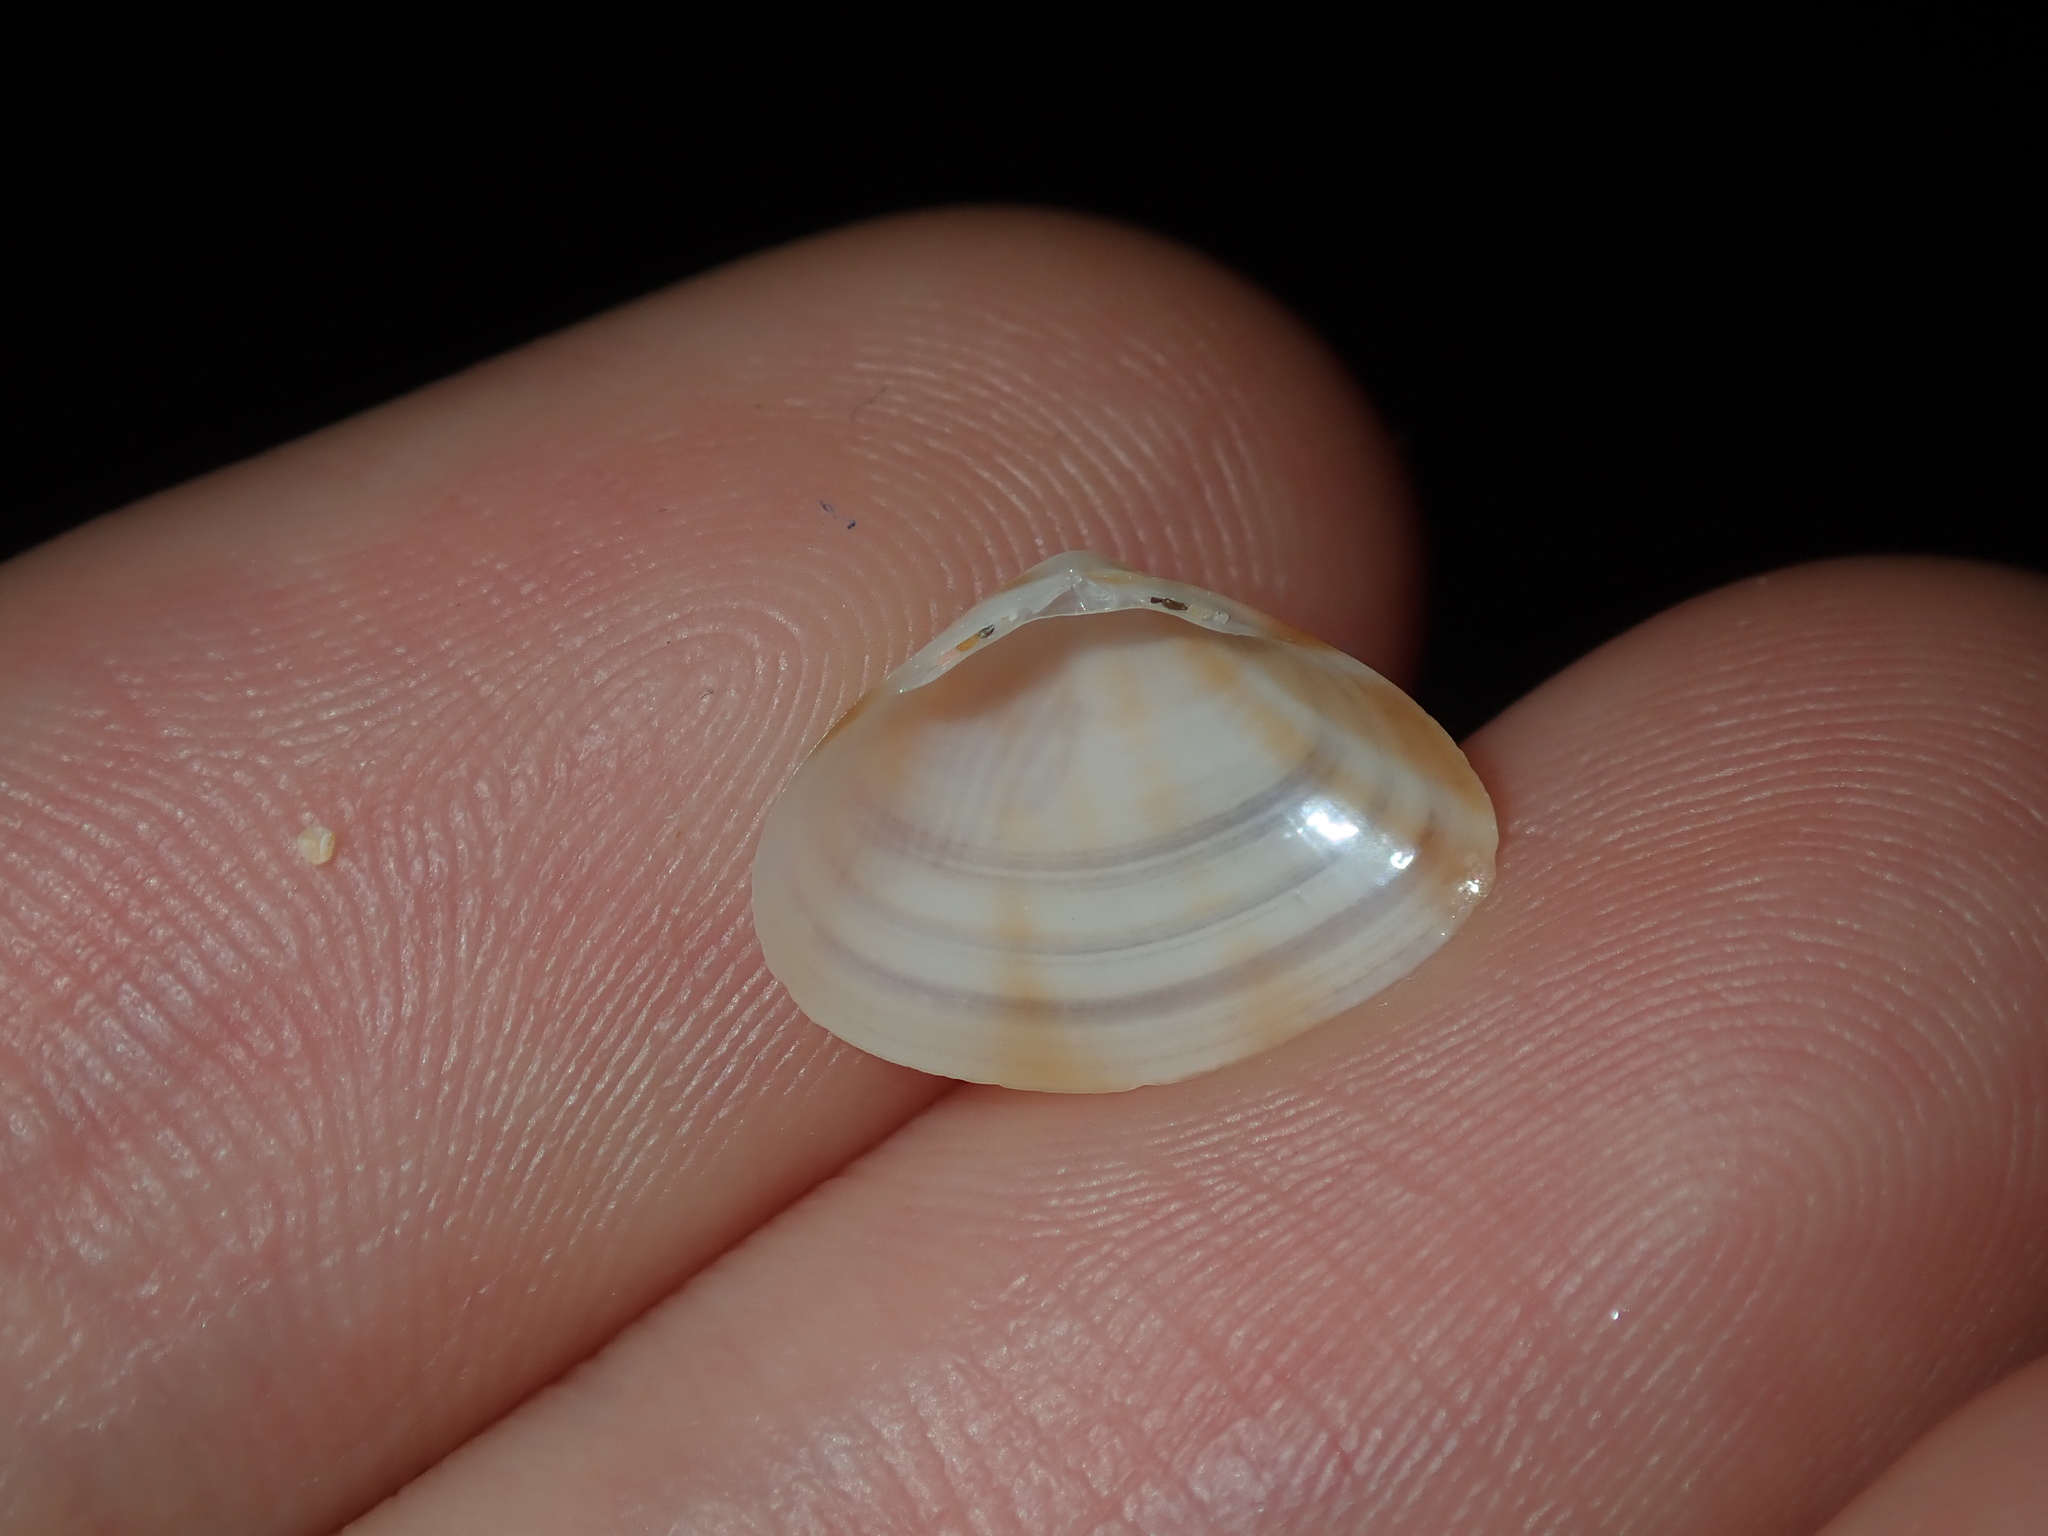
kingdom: Animalia
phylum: Mollusca
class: Bivalvia
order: Venerida
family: Mactridae
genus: Mactra
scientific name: Mactra pusilla
